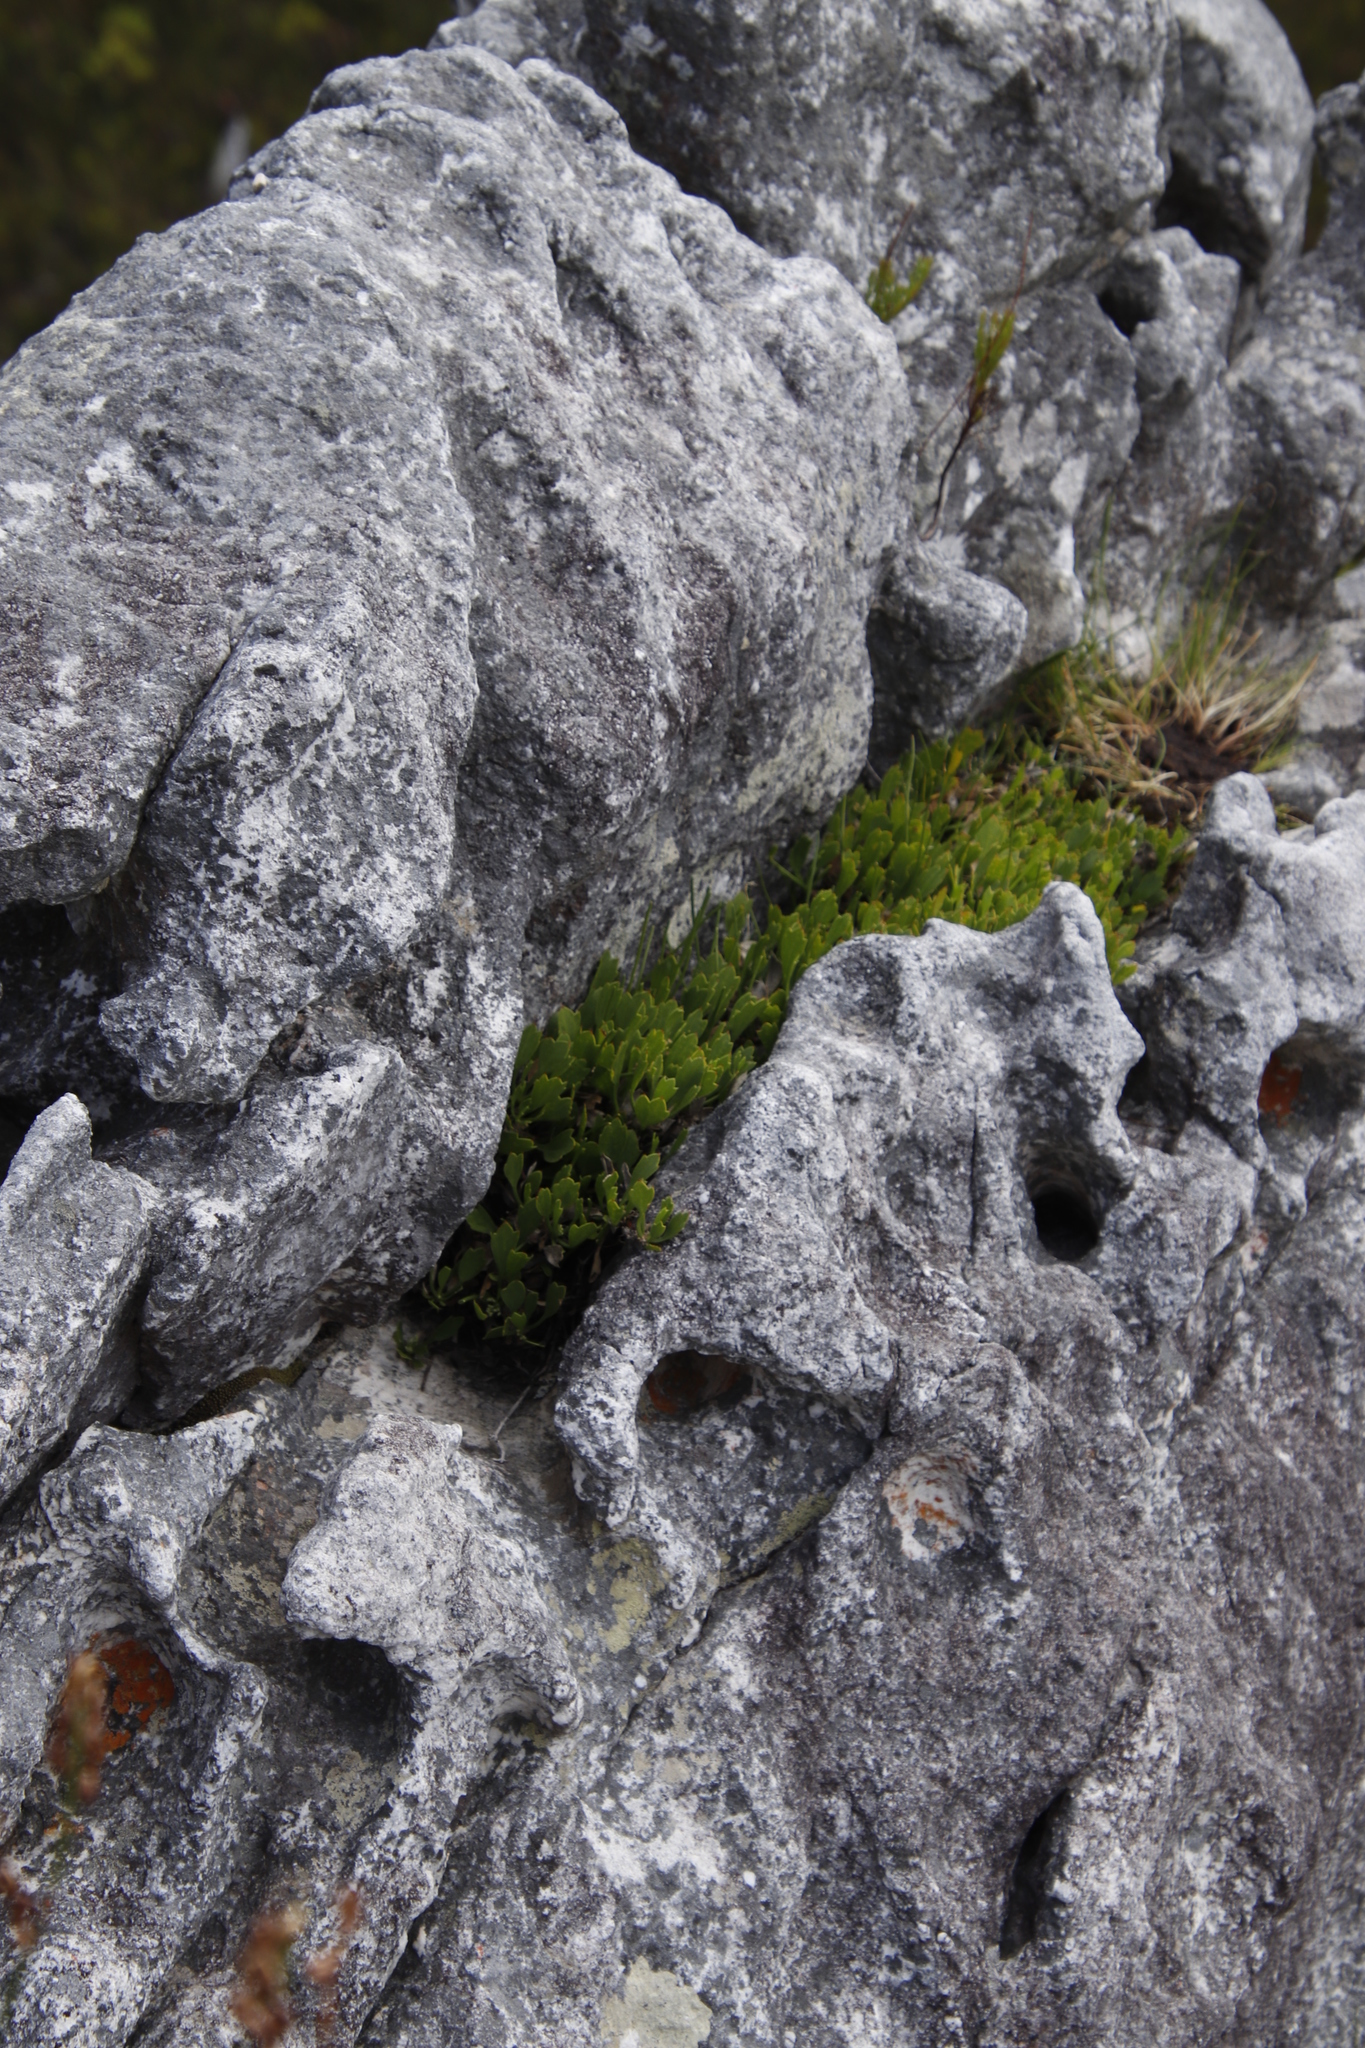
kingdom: Plantae
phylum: Tracheophyta
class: Magnoliopsida
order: Apiales
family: Apiaceae
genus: Centella
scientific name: Centella triloba
